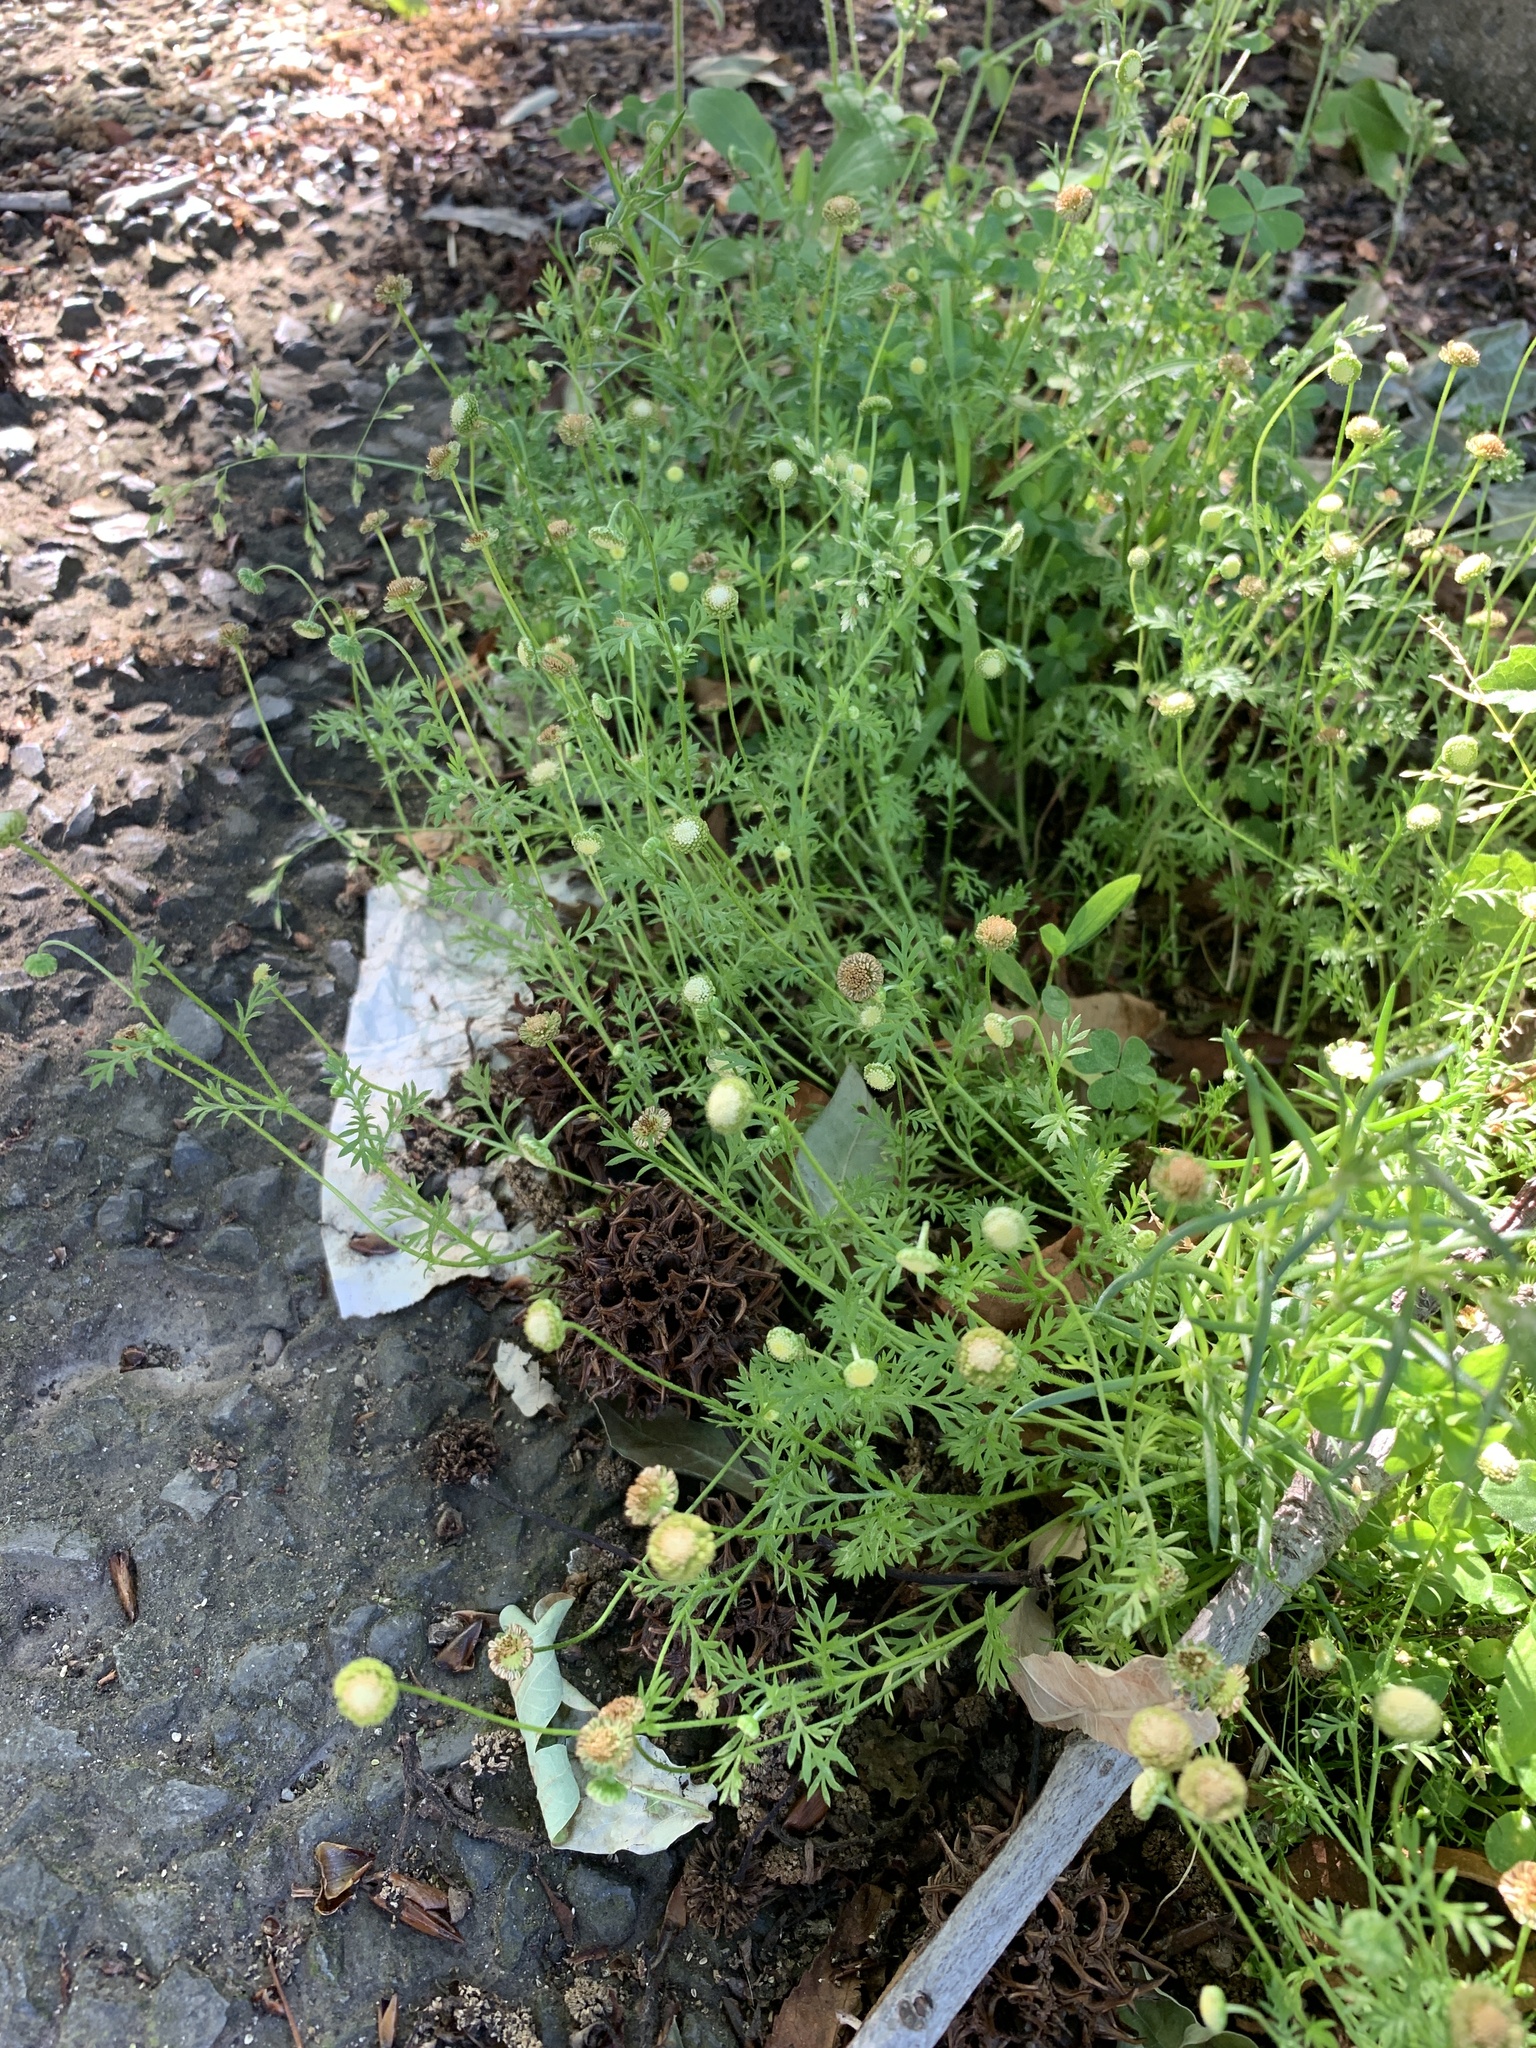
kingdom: Plantae
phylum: Tracheophyta
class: Magnoliopsida
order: Asterales
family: Asteraceae
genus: Cotula
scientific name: Cotula australis
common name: Australian waterbuttons
